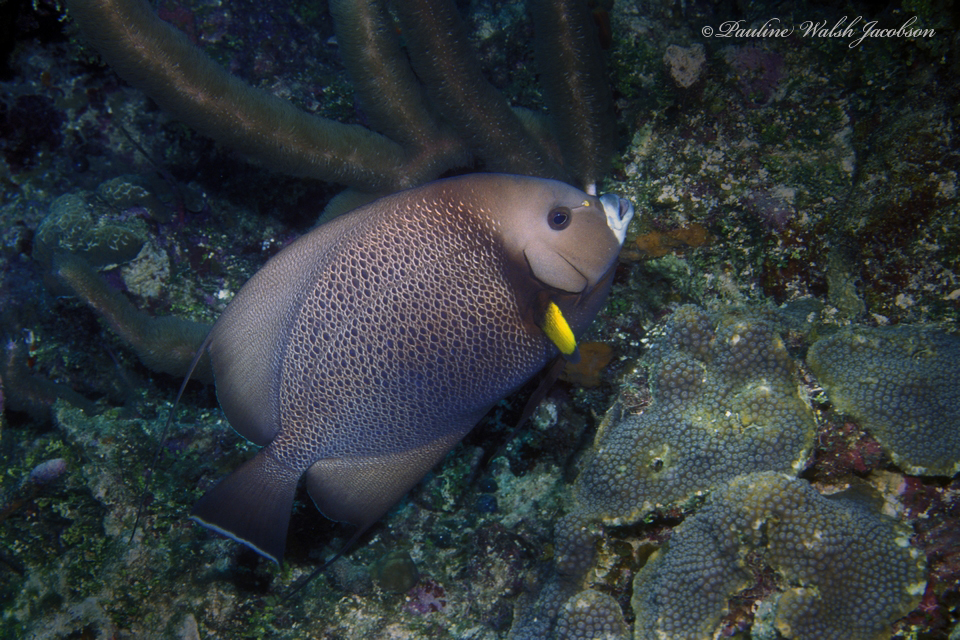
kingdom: Animalia
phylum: Chordata
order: Perciformes
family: Pomacanthidae
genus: Pomacanthus
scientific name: Pomacanthus arcuatus
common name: Gray angelfish
